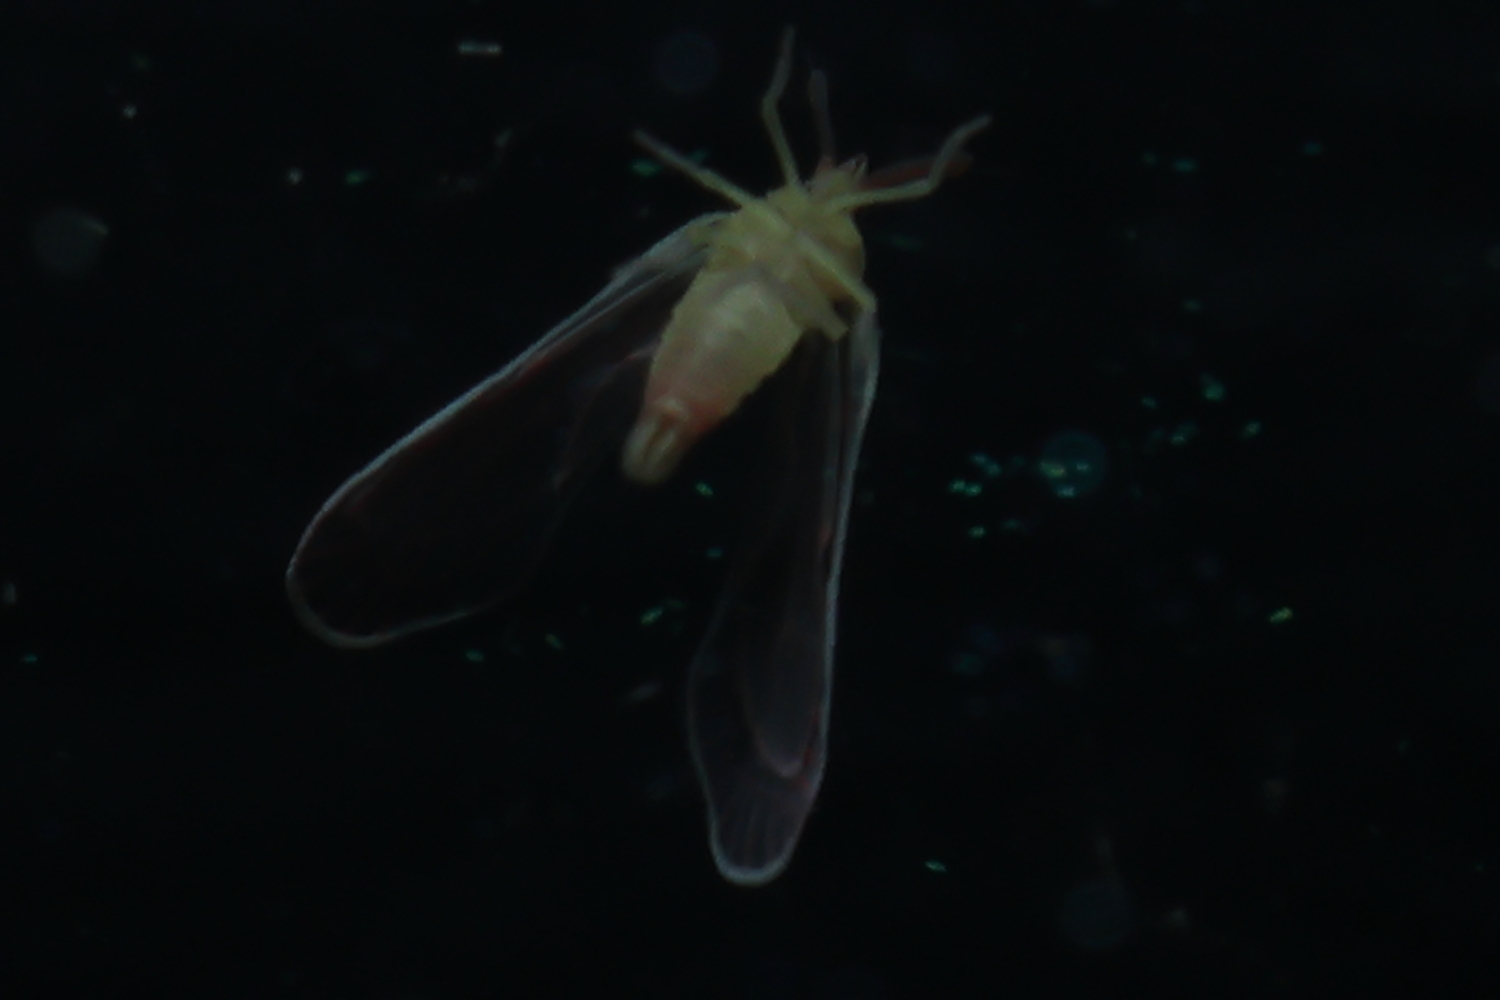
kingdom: Animalia
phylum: Arthropoda
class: Insecta
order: Hemiptera
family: Derbidae
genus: Anotia
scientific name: Anotia firebugia
